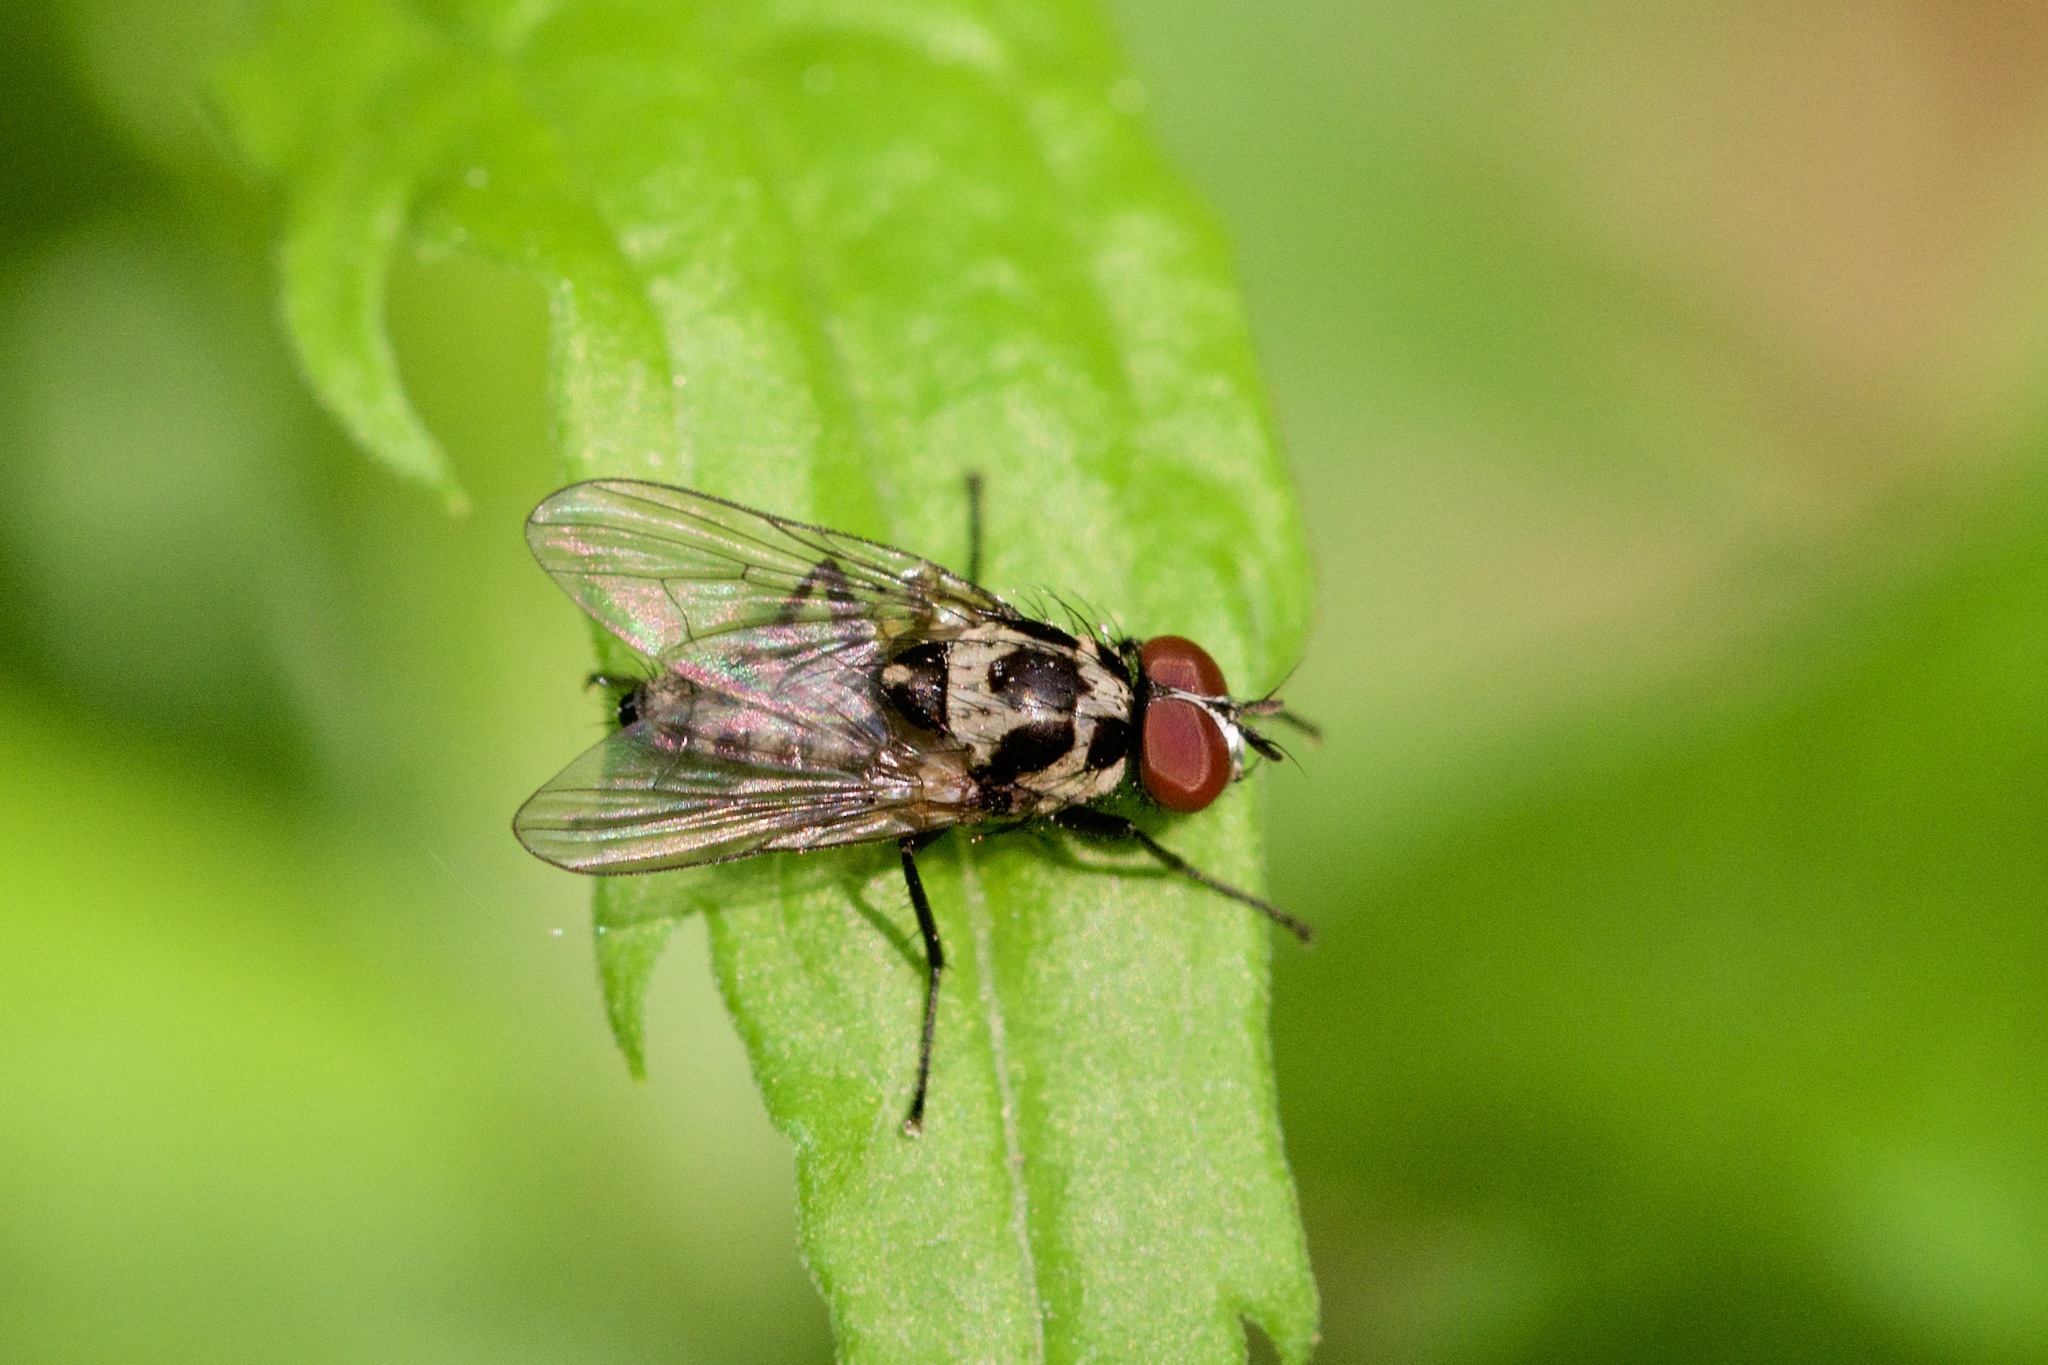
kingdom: Animalia
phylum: Arthropoda
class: Insecta
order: Diptera
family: Anthomyiidae
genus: Anthomyia
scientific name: Anthomyia pluvialis
